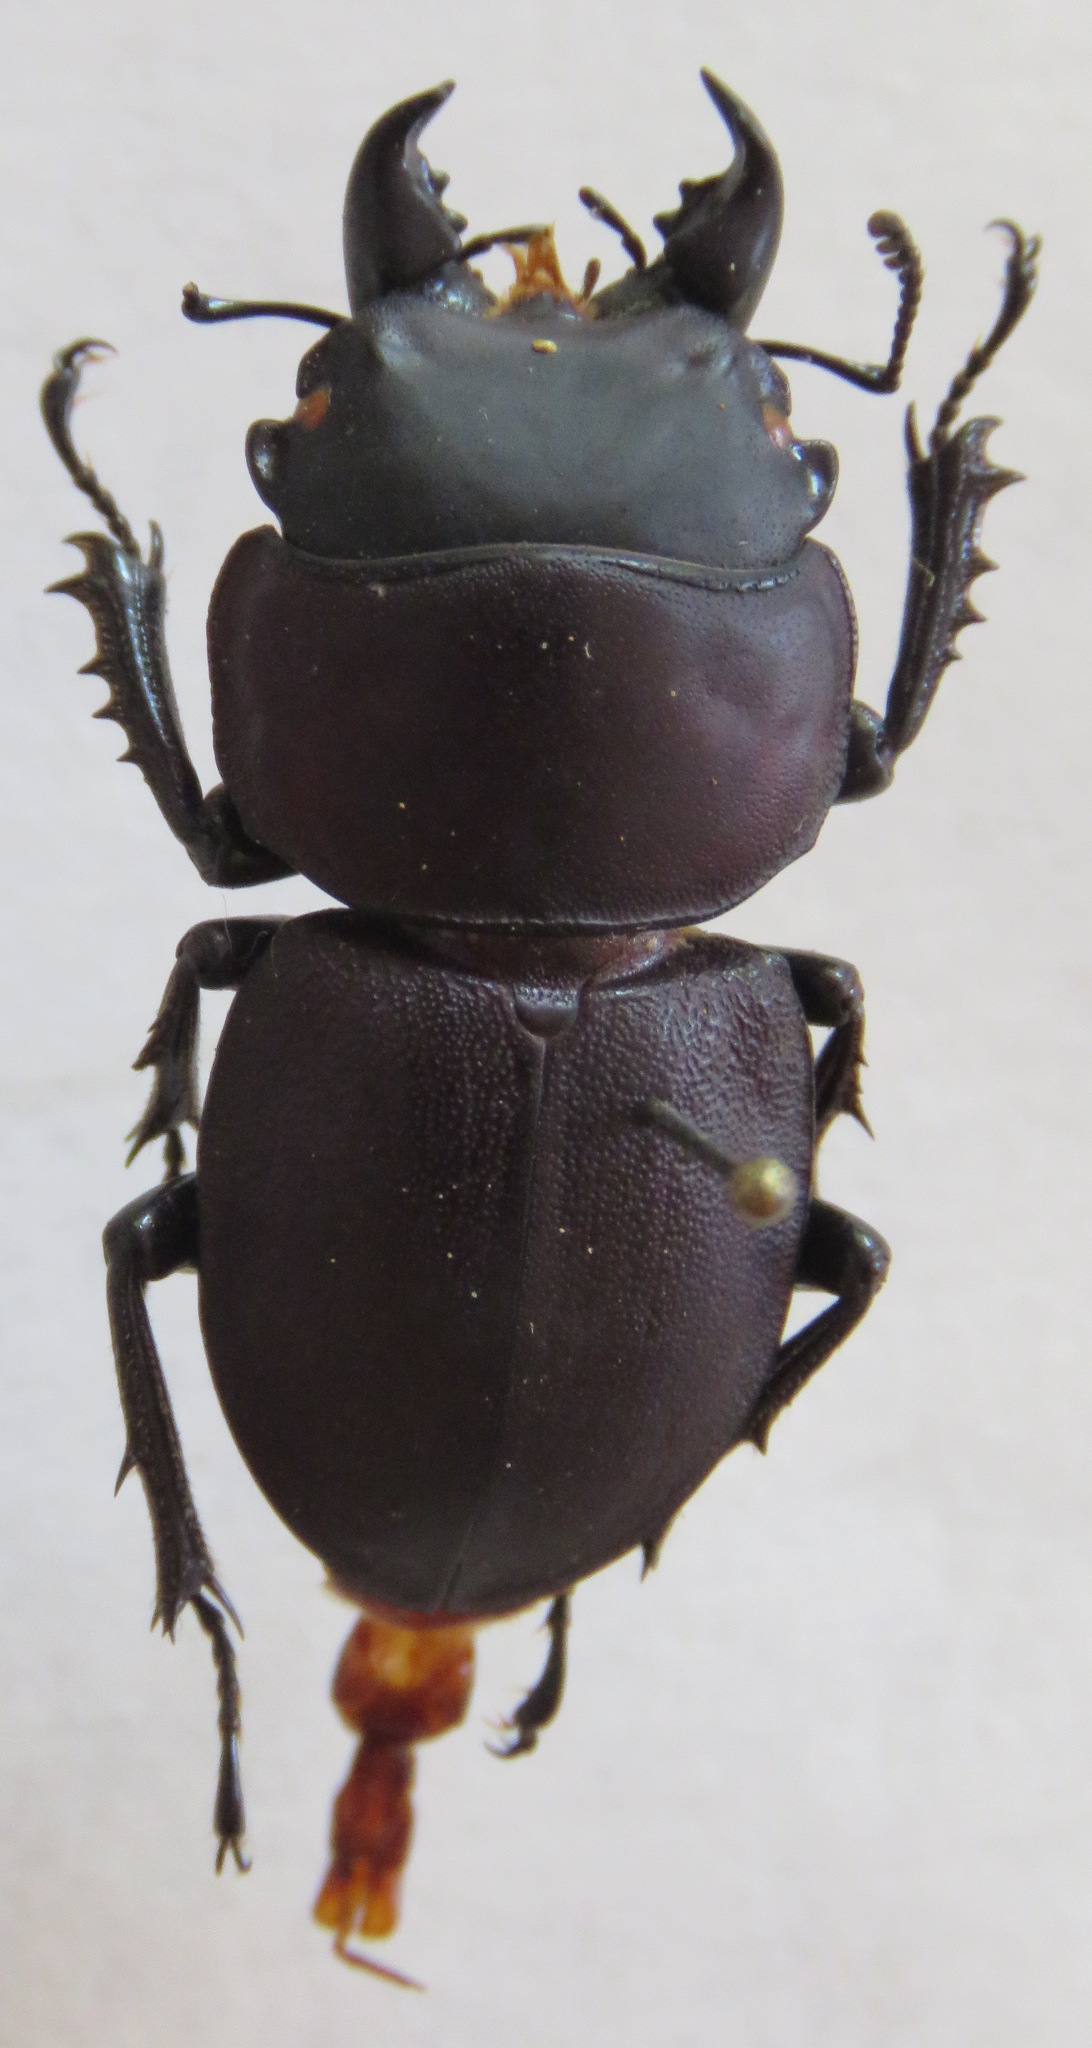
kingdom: Animalia
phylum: Arthropoda
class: Insecta
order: Coleoptera
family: Lucanidae
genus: Apterodorcus
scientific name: Apterodorcus bacchus
